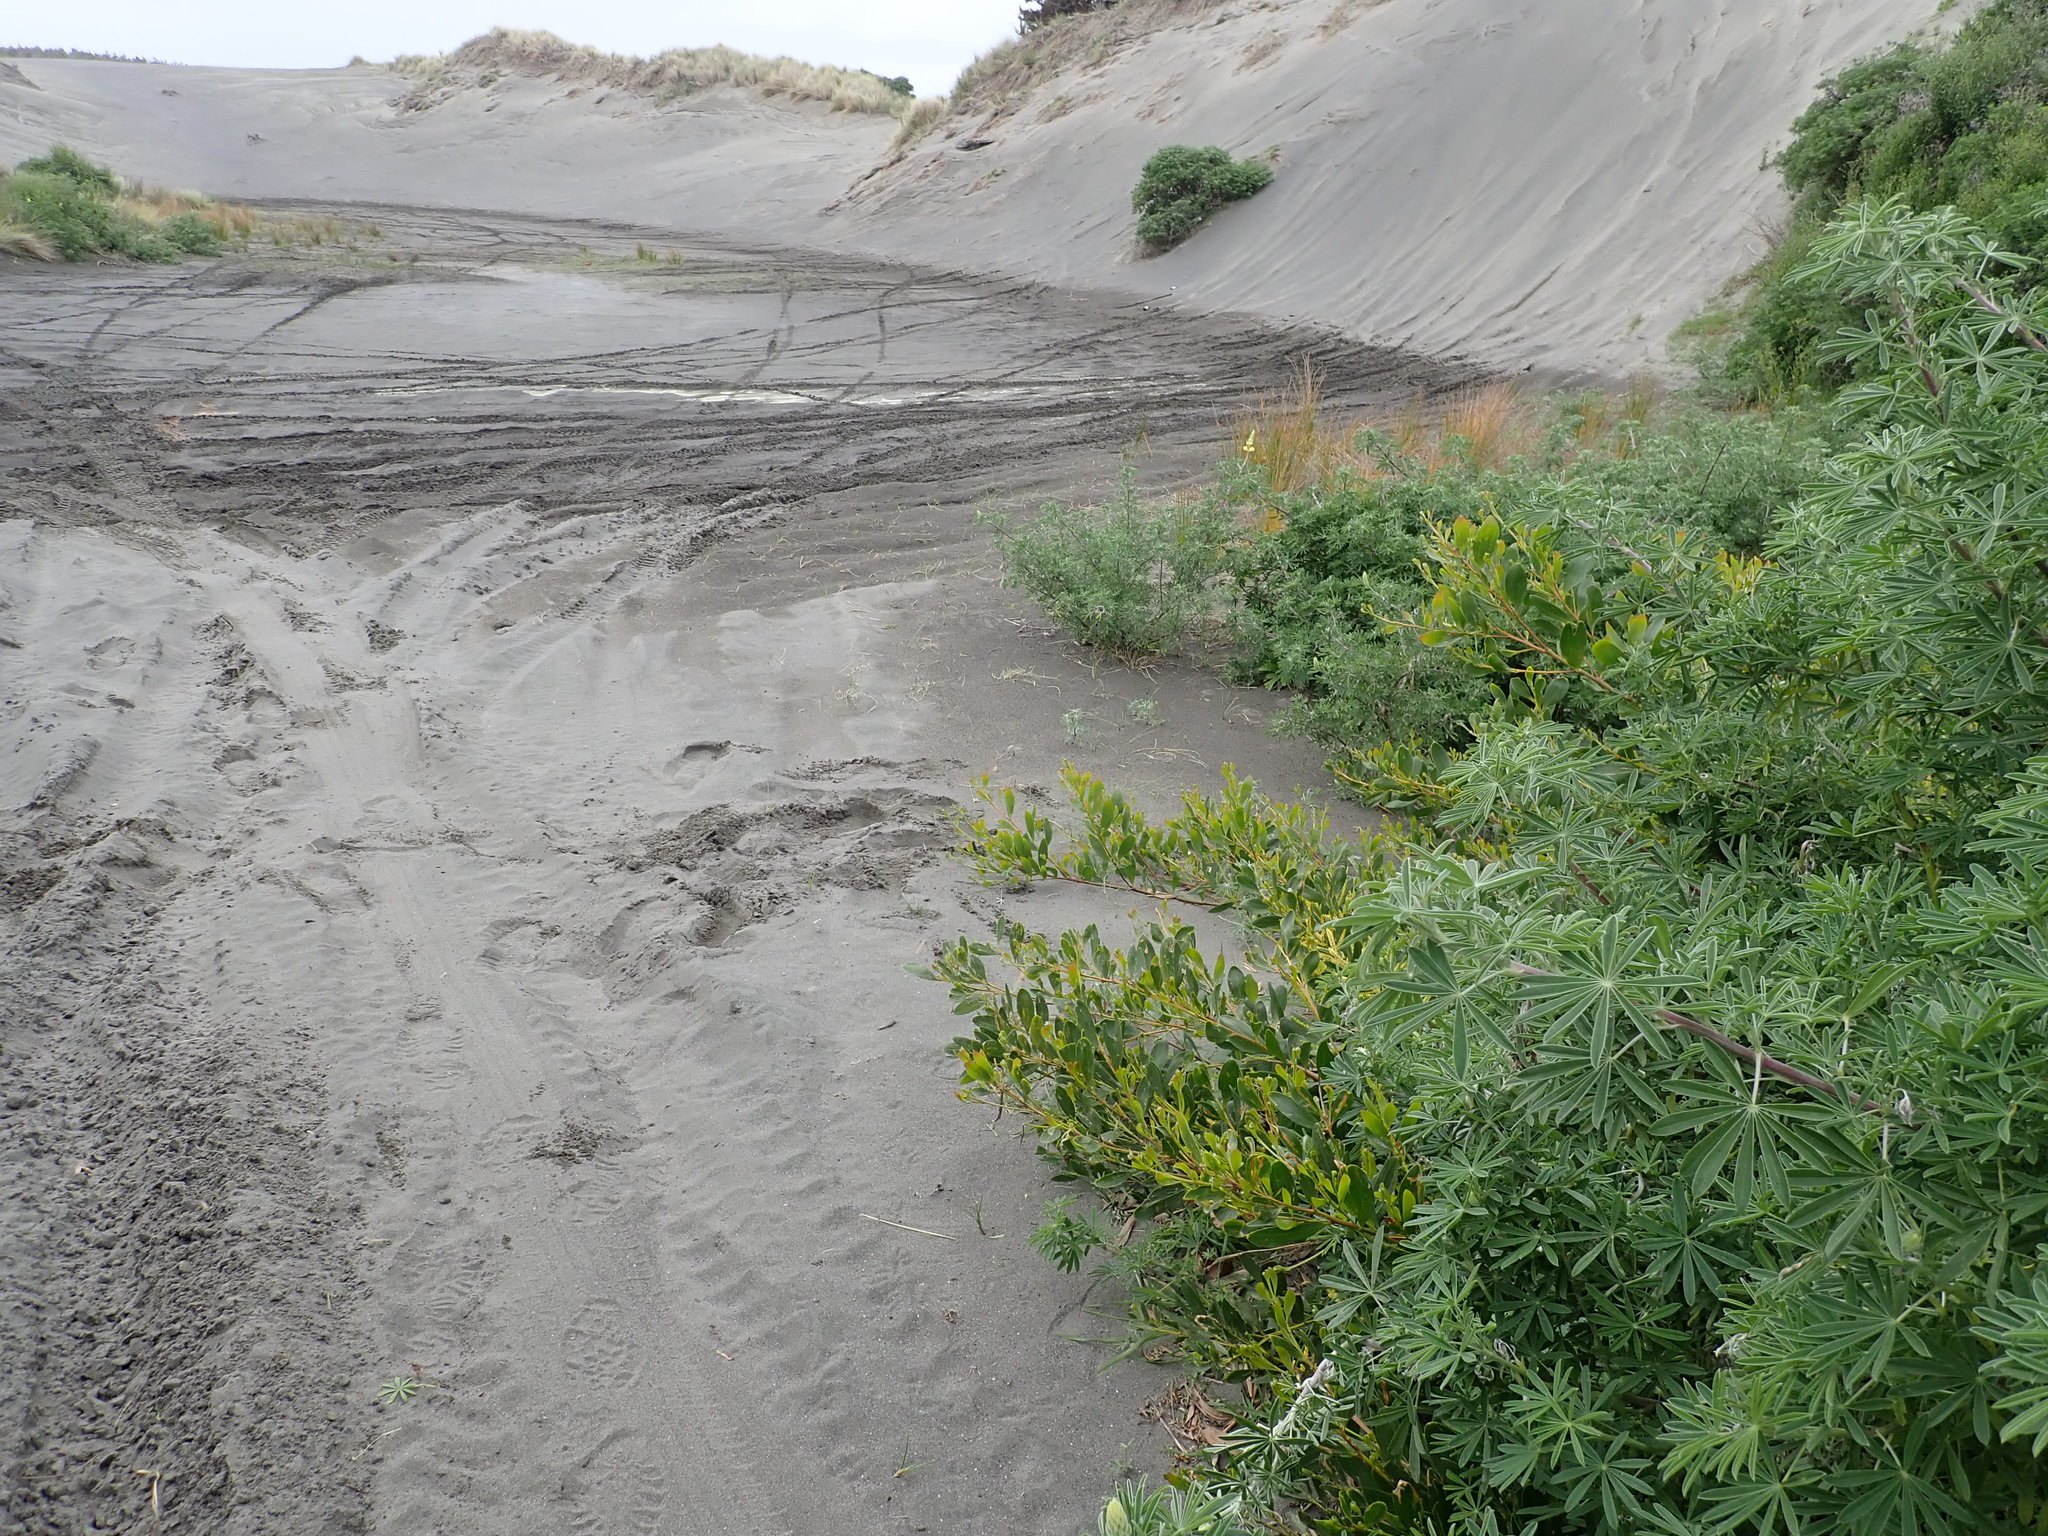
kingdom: Plantae
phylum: Tracheophyta
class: Magnoliopsida
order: Fabales
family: Fabaceae
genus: Lupinus
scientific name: Lupinus arboreus
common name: Yellow bush lupine
